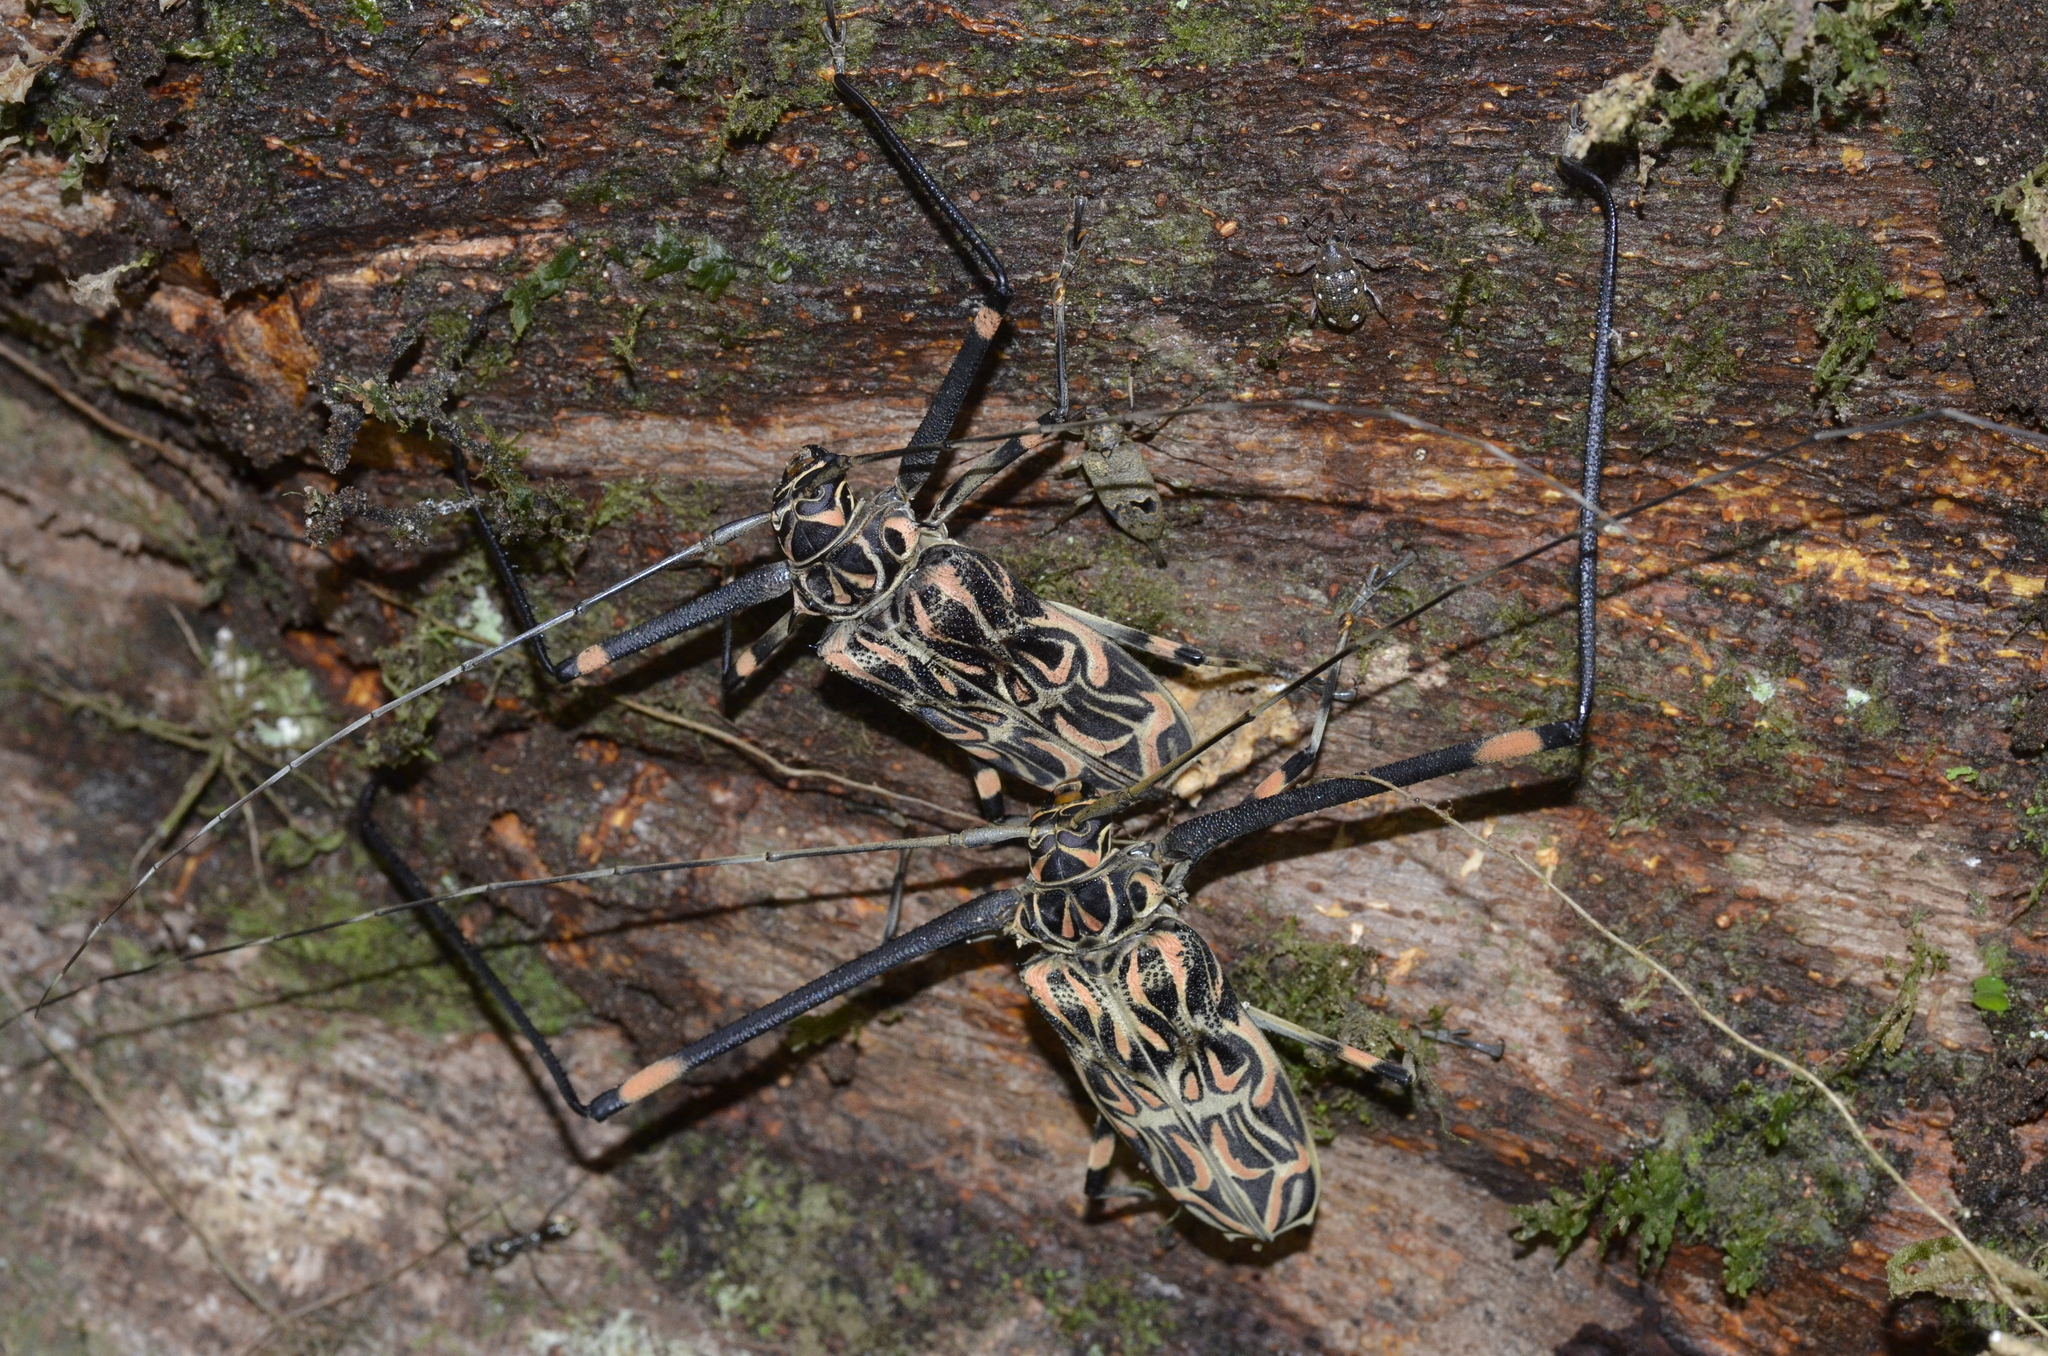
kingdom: Animalia
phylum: Arthropoda
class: Insecta
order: Coleoptera
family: Cerambycidae
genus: Acrocinus
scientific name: Acrocinus longimanus
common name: Arlequin
